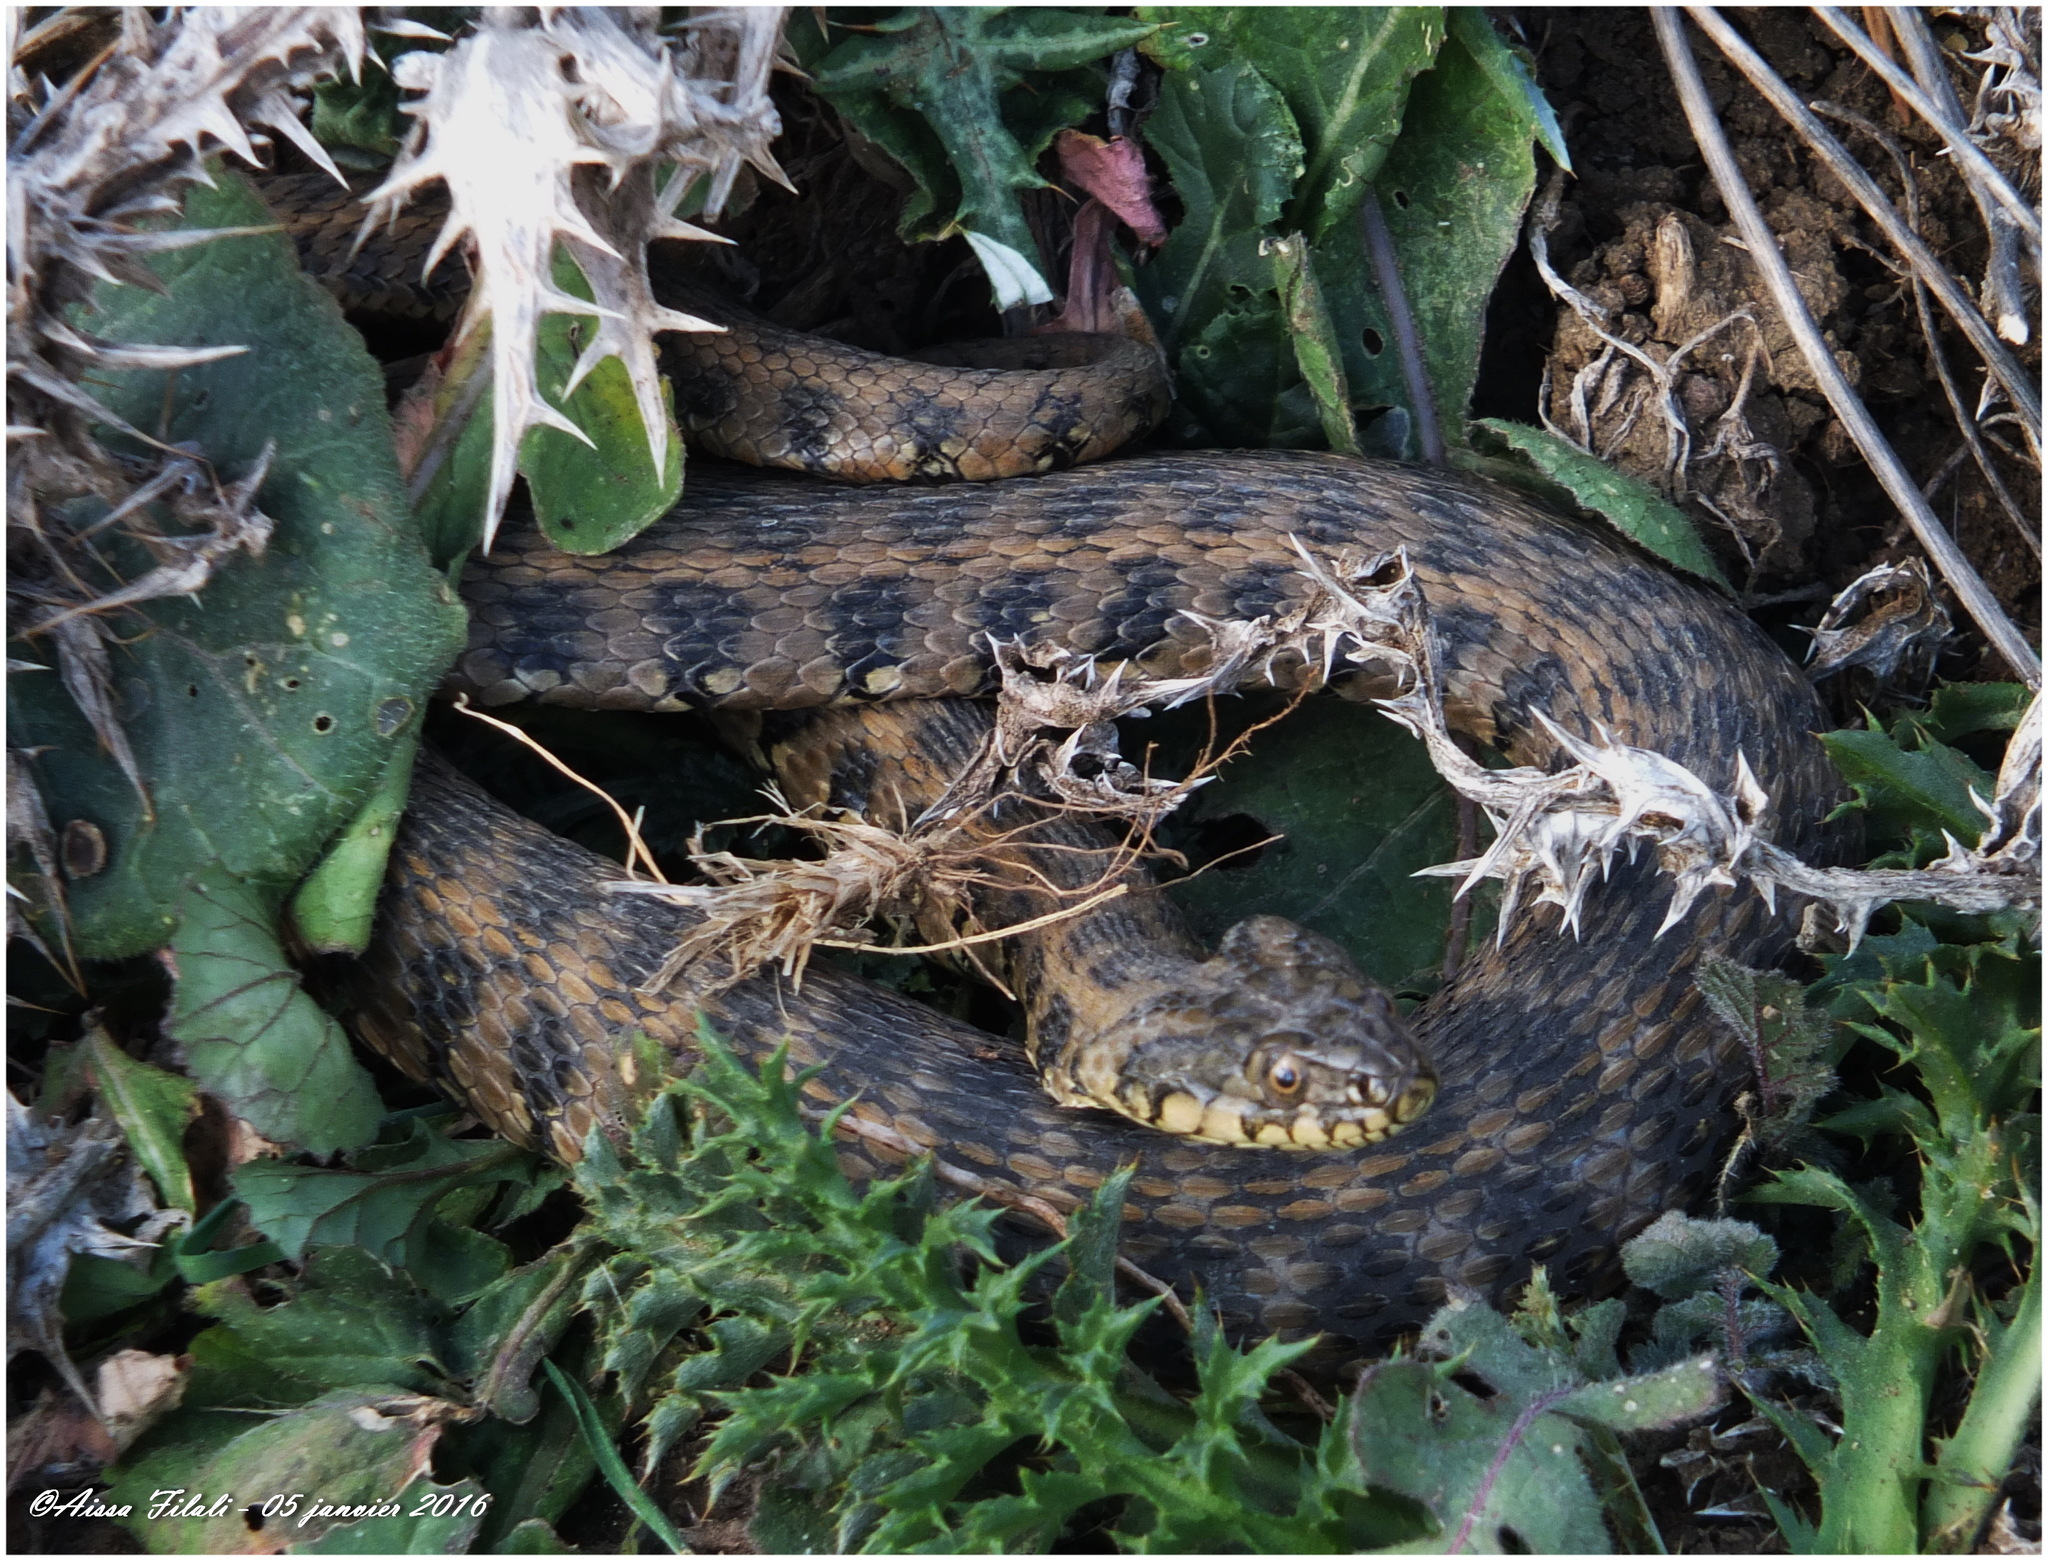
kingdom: Animalia
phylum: Chordata
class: Squamata
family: Colubridae
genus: Natrix
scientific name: Natrix maura
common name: Viperine water snake
